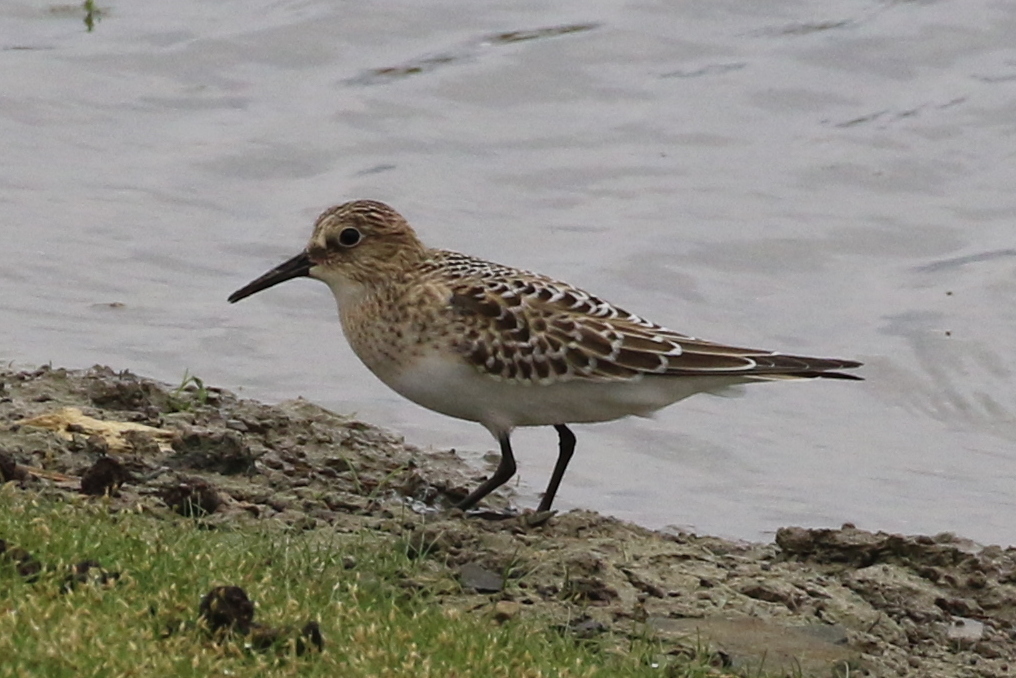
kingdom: Animalia
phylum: Chordata
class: Aves
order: Charadriiformes
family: Scolopacidae
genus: Calidris
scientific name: Calidris bairdii
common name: Baird's sandpiper
